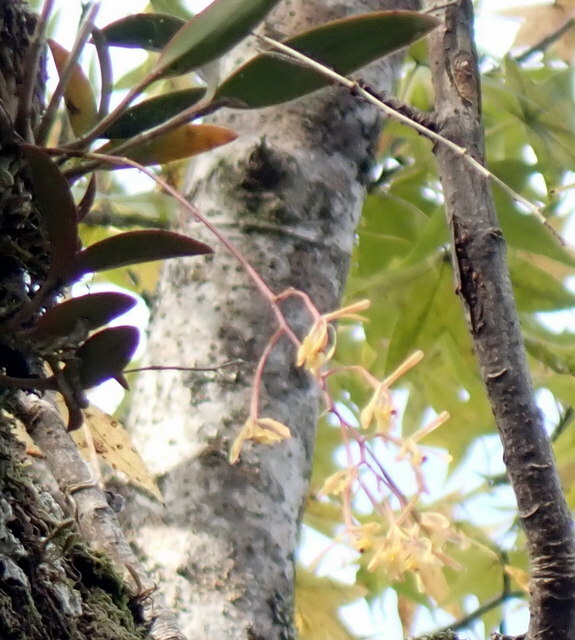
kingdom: Plantae
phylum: Tracheophyta
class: Liliopsida
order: Asparagales
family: Orchidaceae
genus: Epidendrum
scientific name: Epidendrum conopseum
